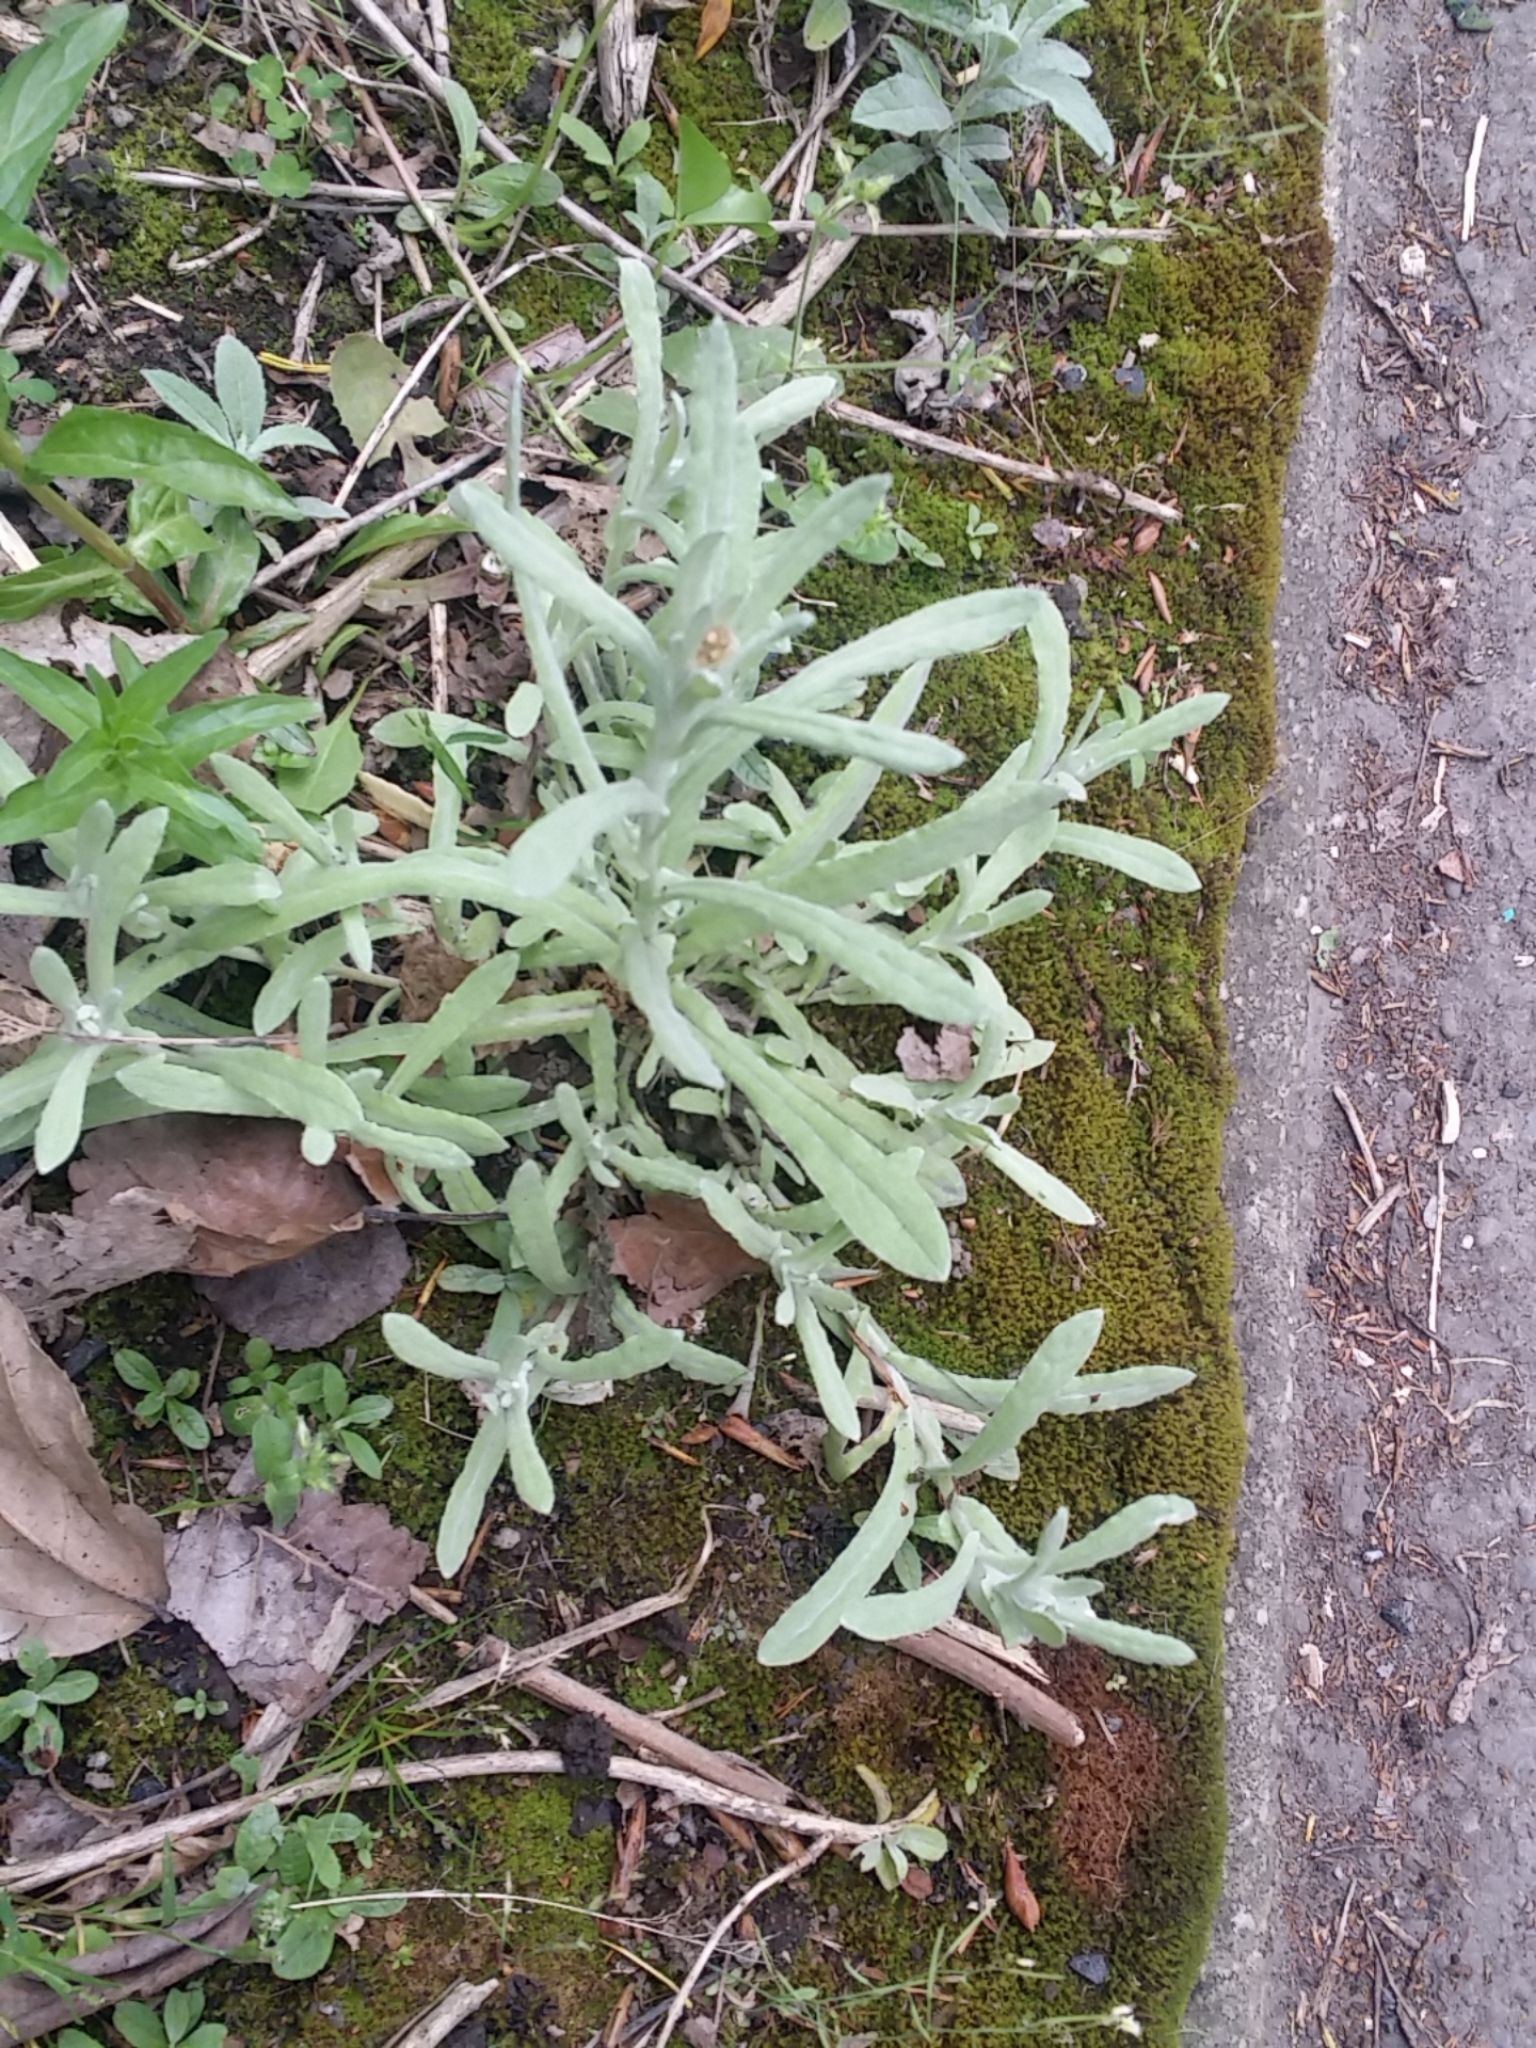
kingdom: Plantae
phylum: Tracheophyta
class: Magnoliopsida
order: Asterales
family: Asteraceae
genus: Helichrysum
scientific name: Helichrysum luteoalbum
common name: Daisy
